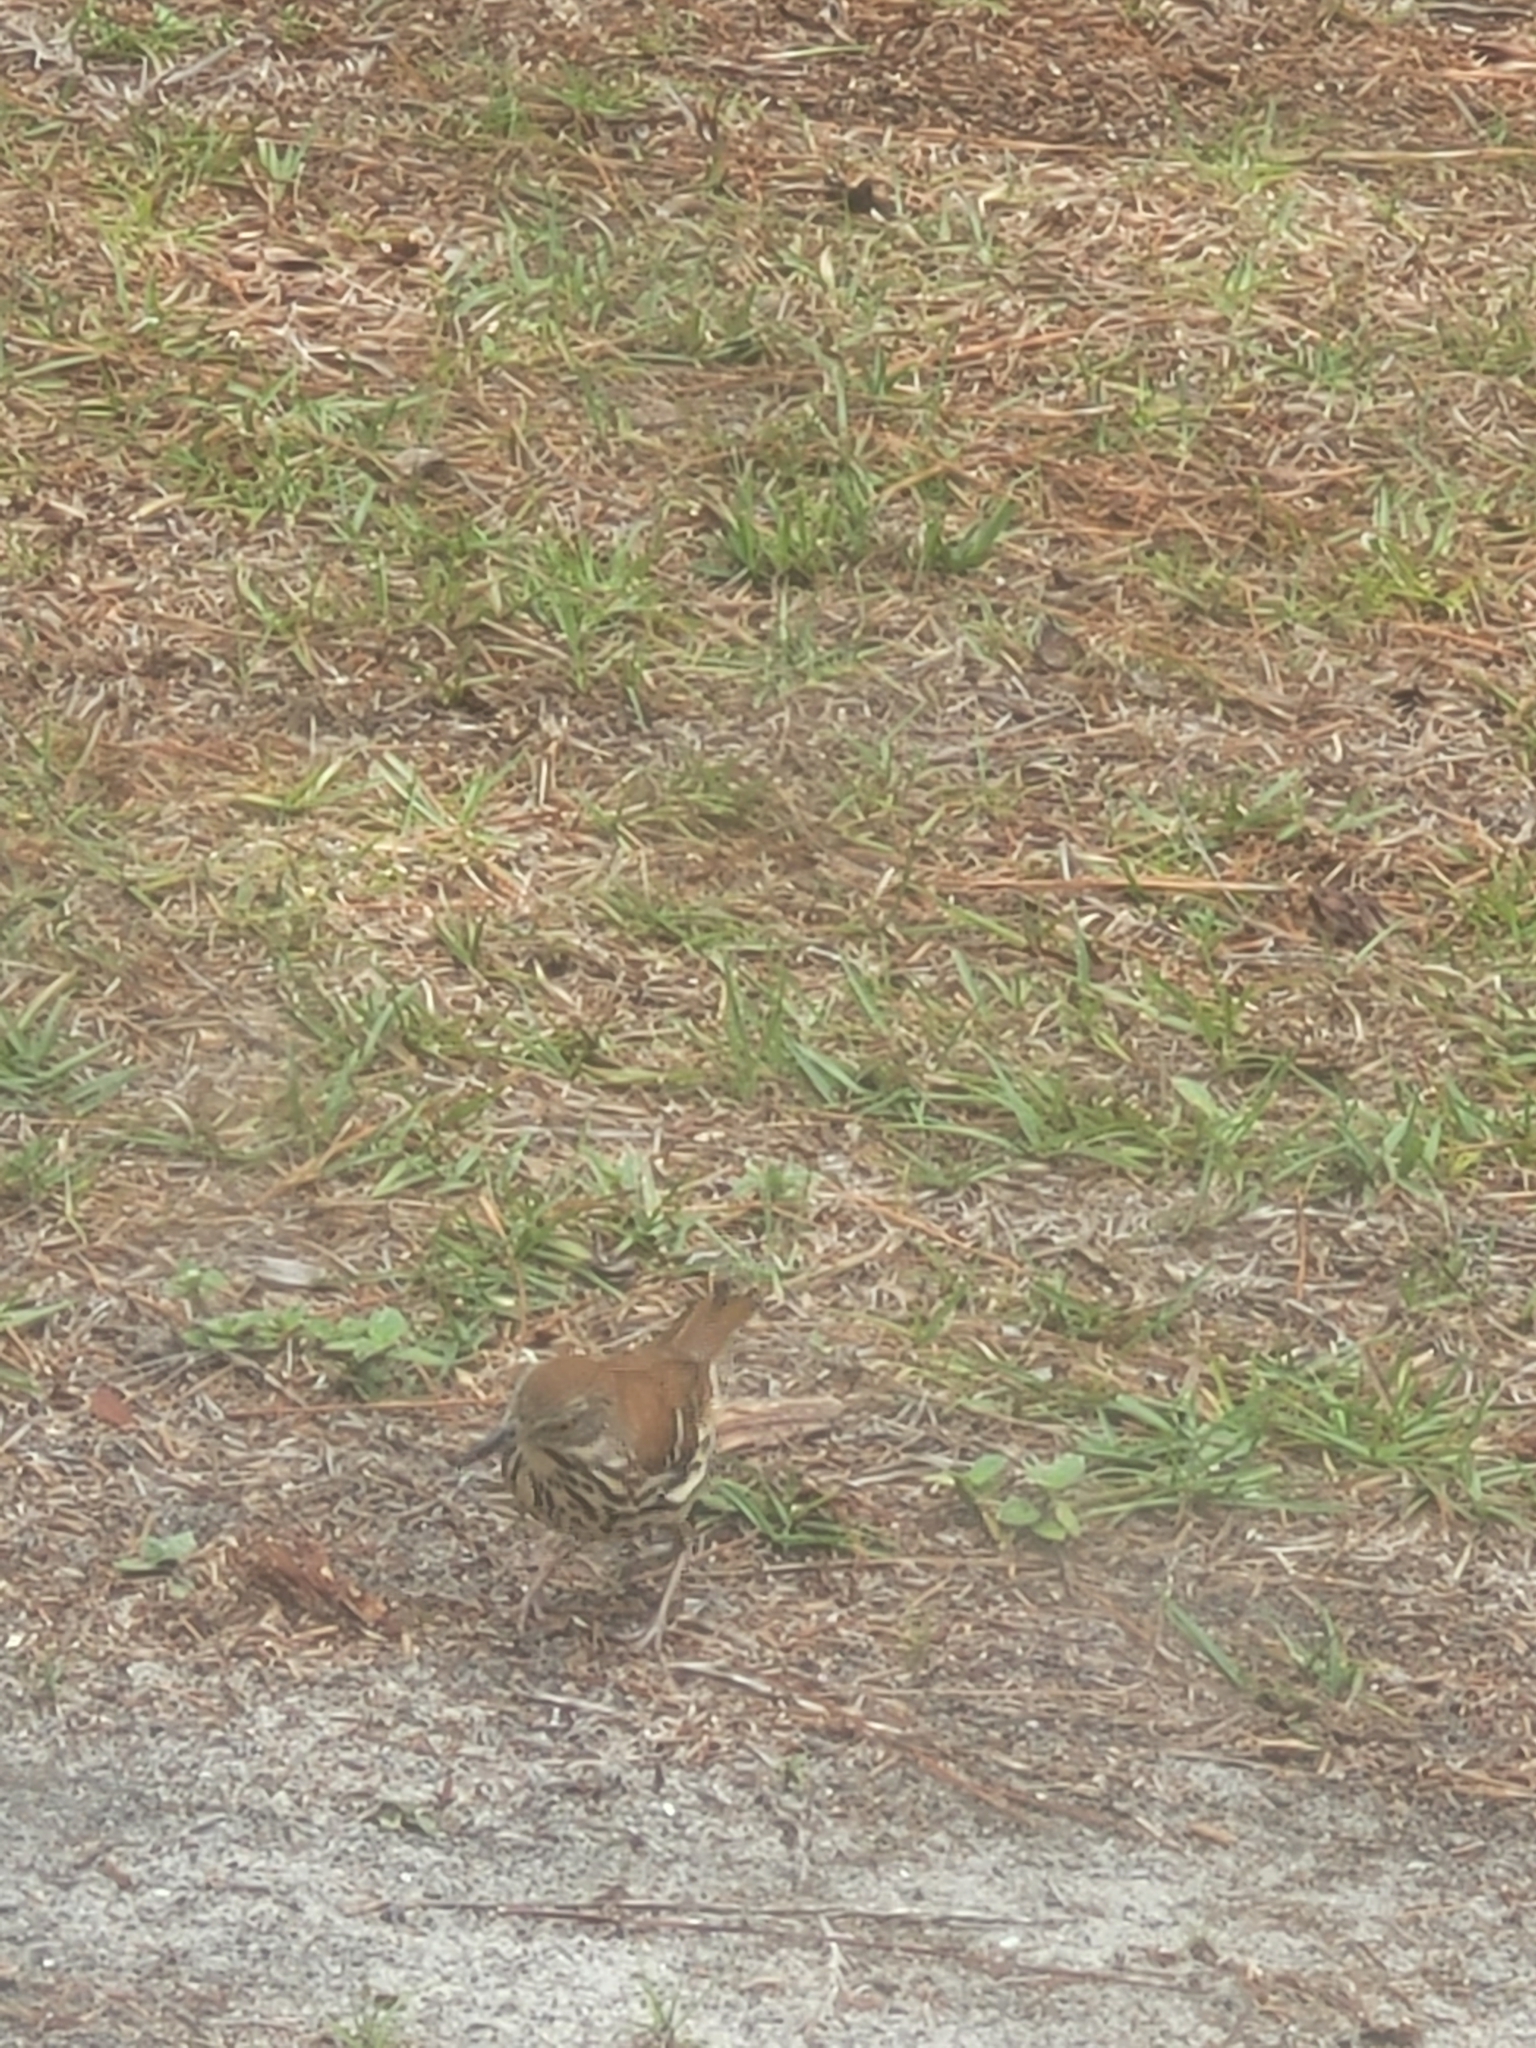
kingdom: Animalia
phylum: Chordata
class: Aves
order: Passeriformes
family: Mimidae
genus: Toxostoma
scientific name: Toxostoma rufum
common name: Brown thrasher
